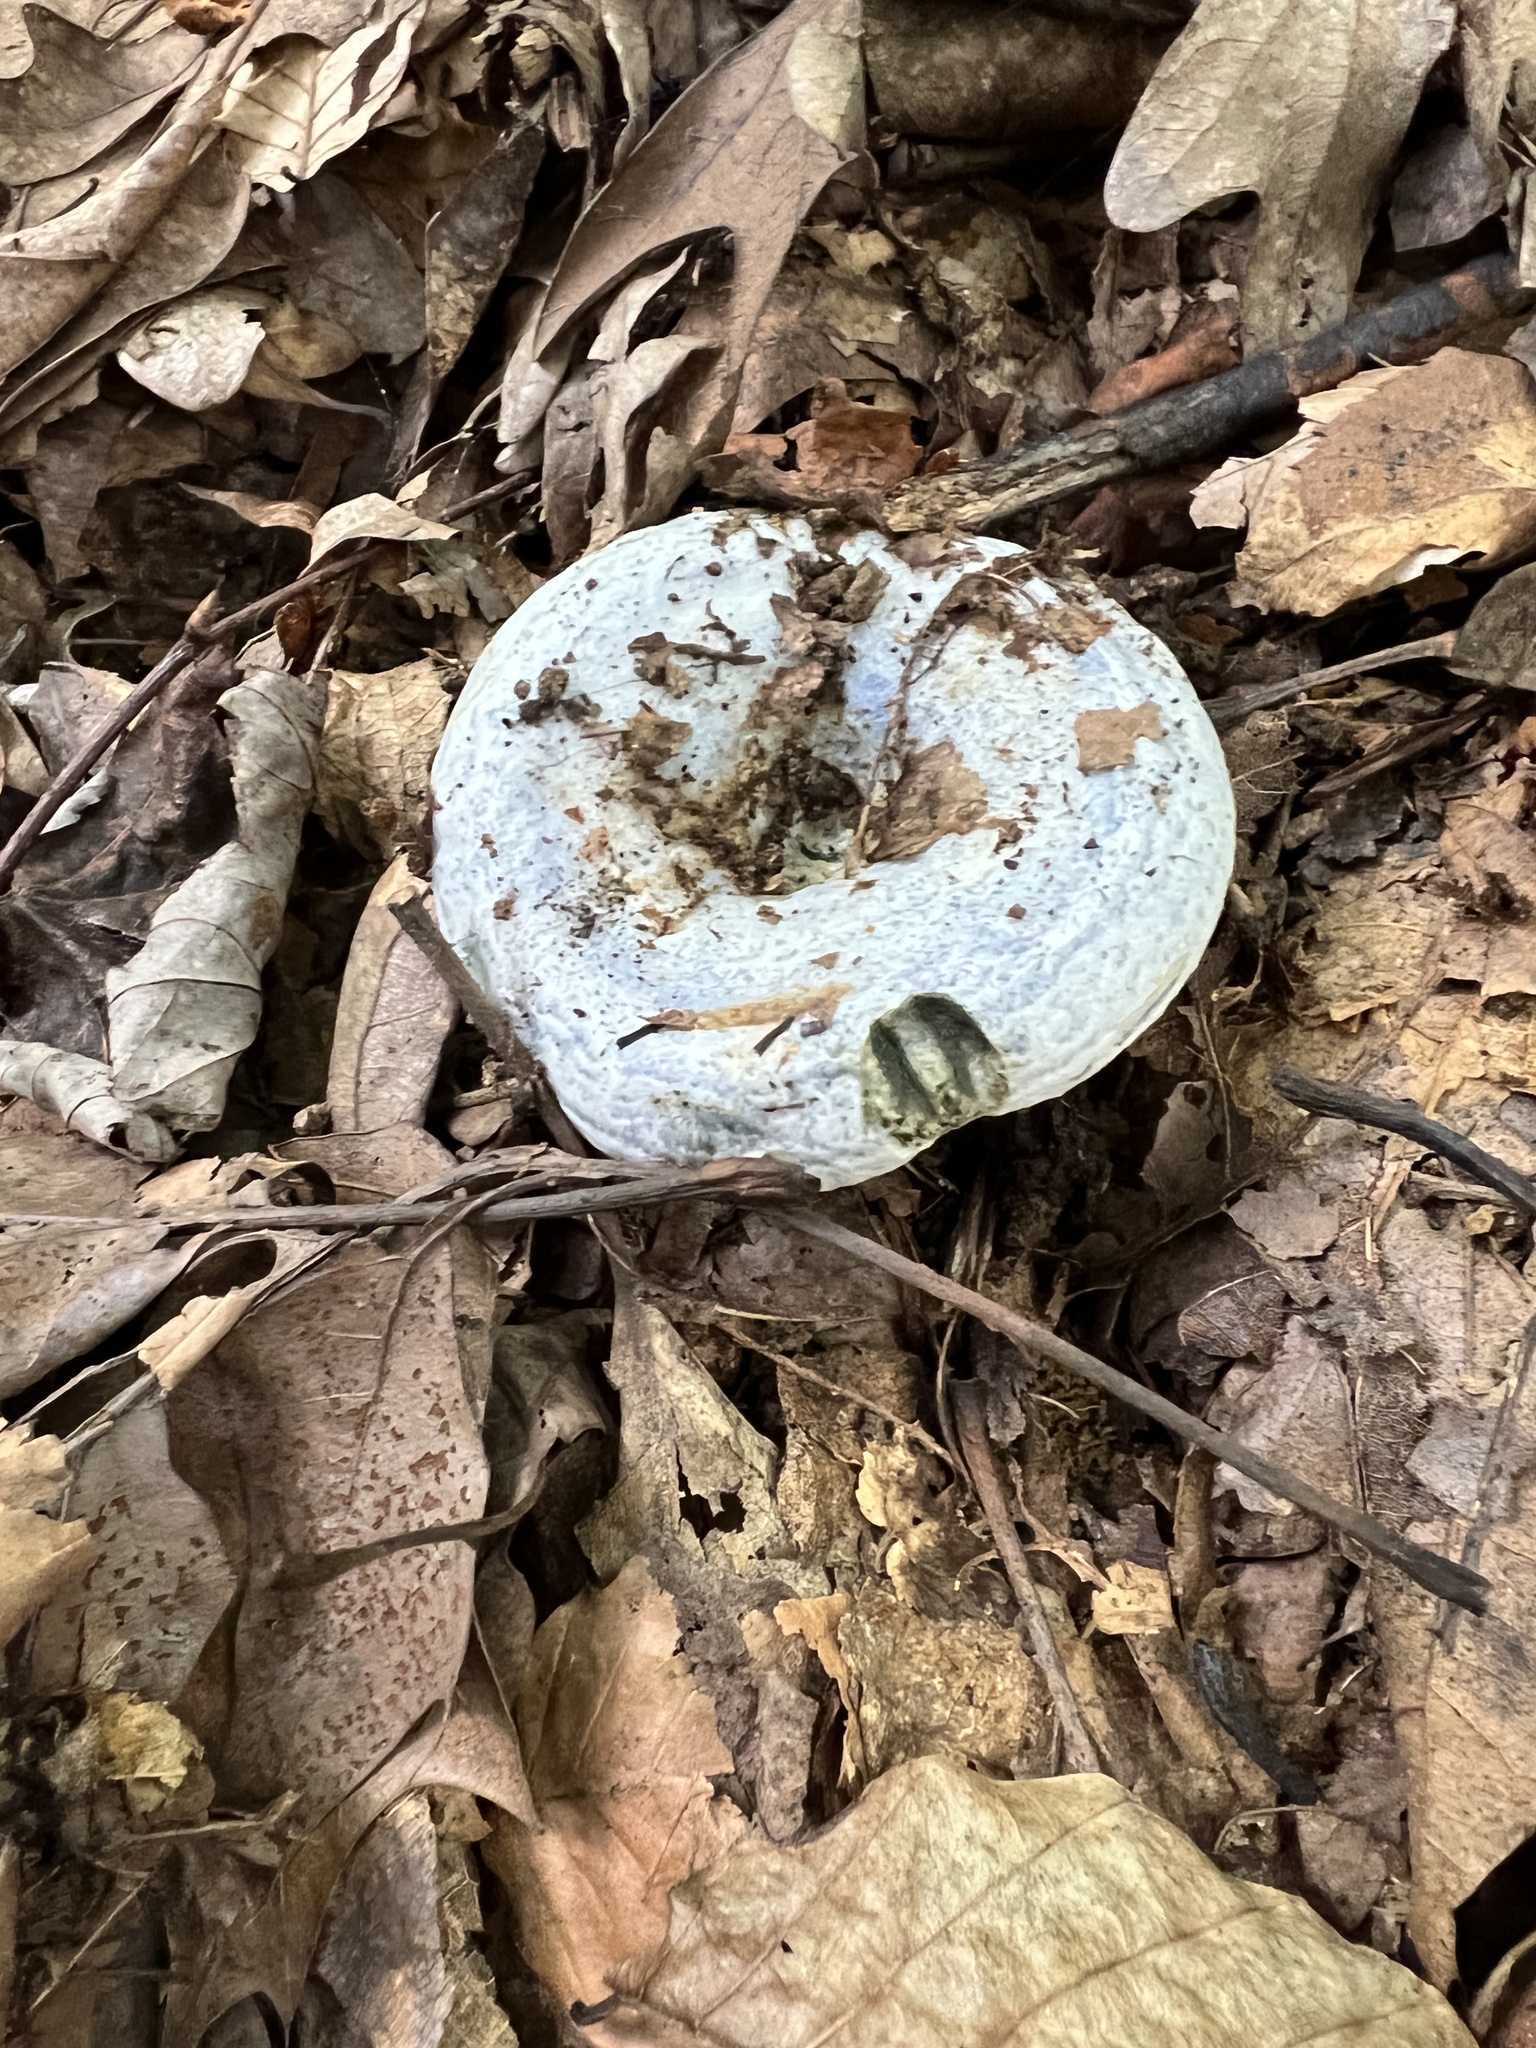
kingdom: Fungi
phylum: Basidiomycota
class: Agaricomycetes
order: Russulales
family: Russulaceae
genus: Lactarius
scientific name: Lactarius indigo
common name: Indigo milk cap
